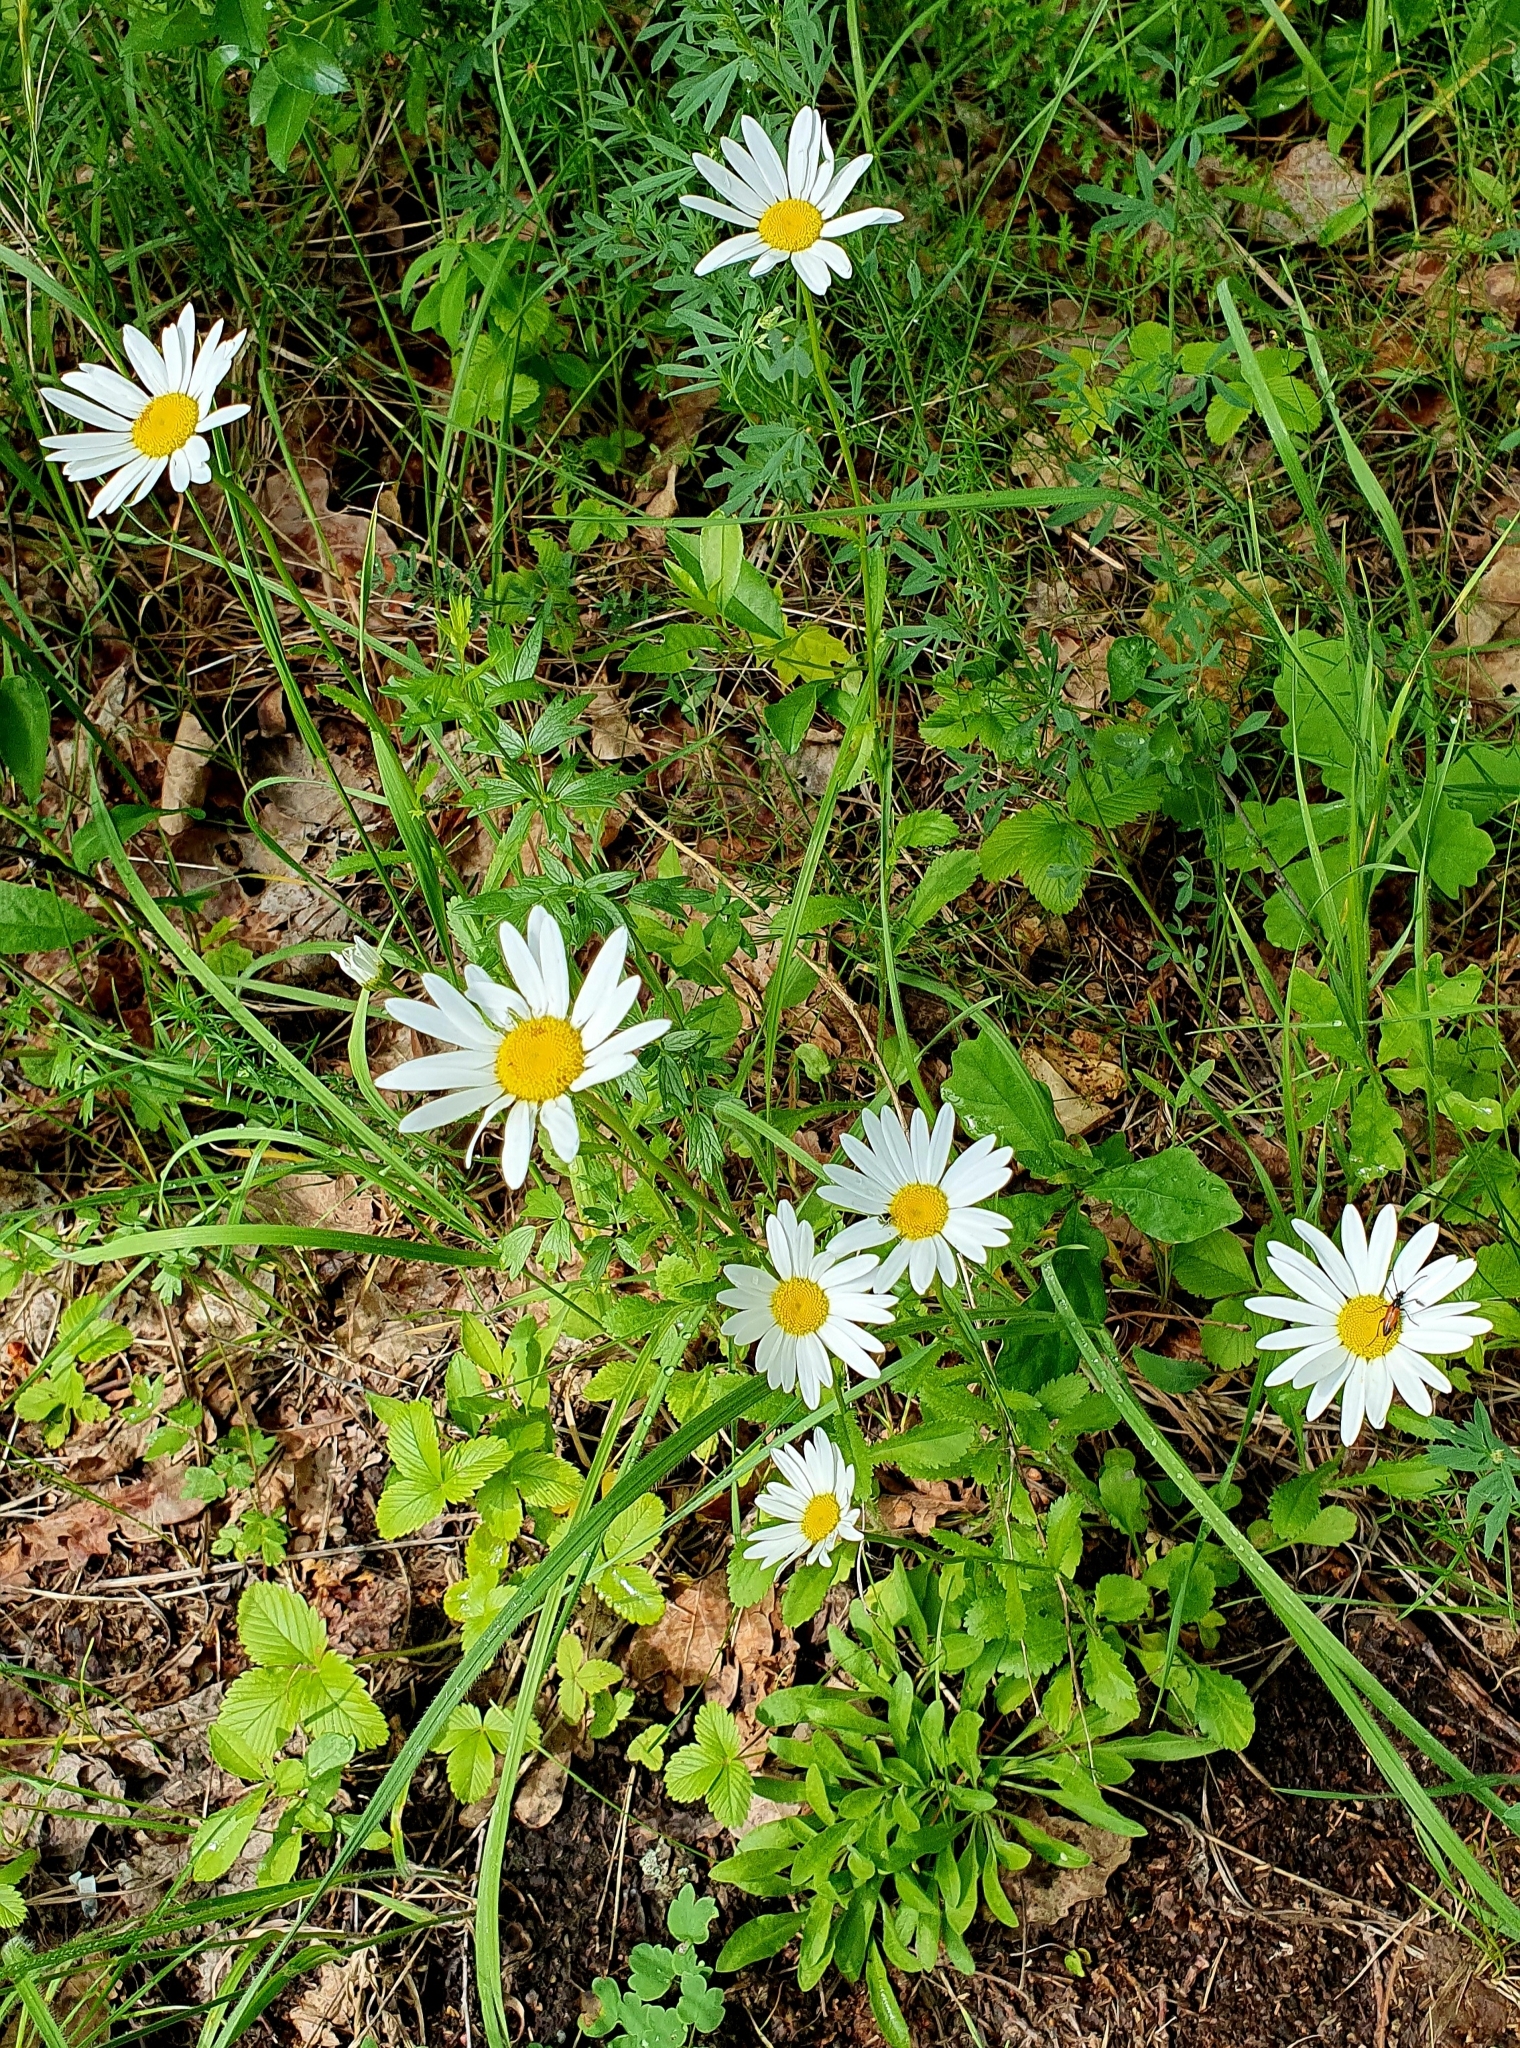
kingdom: Plantae
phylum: Tracheophyta
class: Magnoliopsida
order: Asterales
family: Asteraceae
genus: Leucanthemum
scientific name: Leucanthemum vulgare
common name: Oxeye daisy
